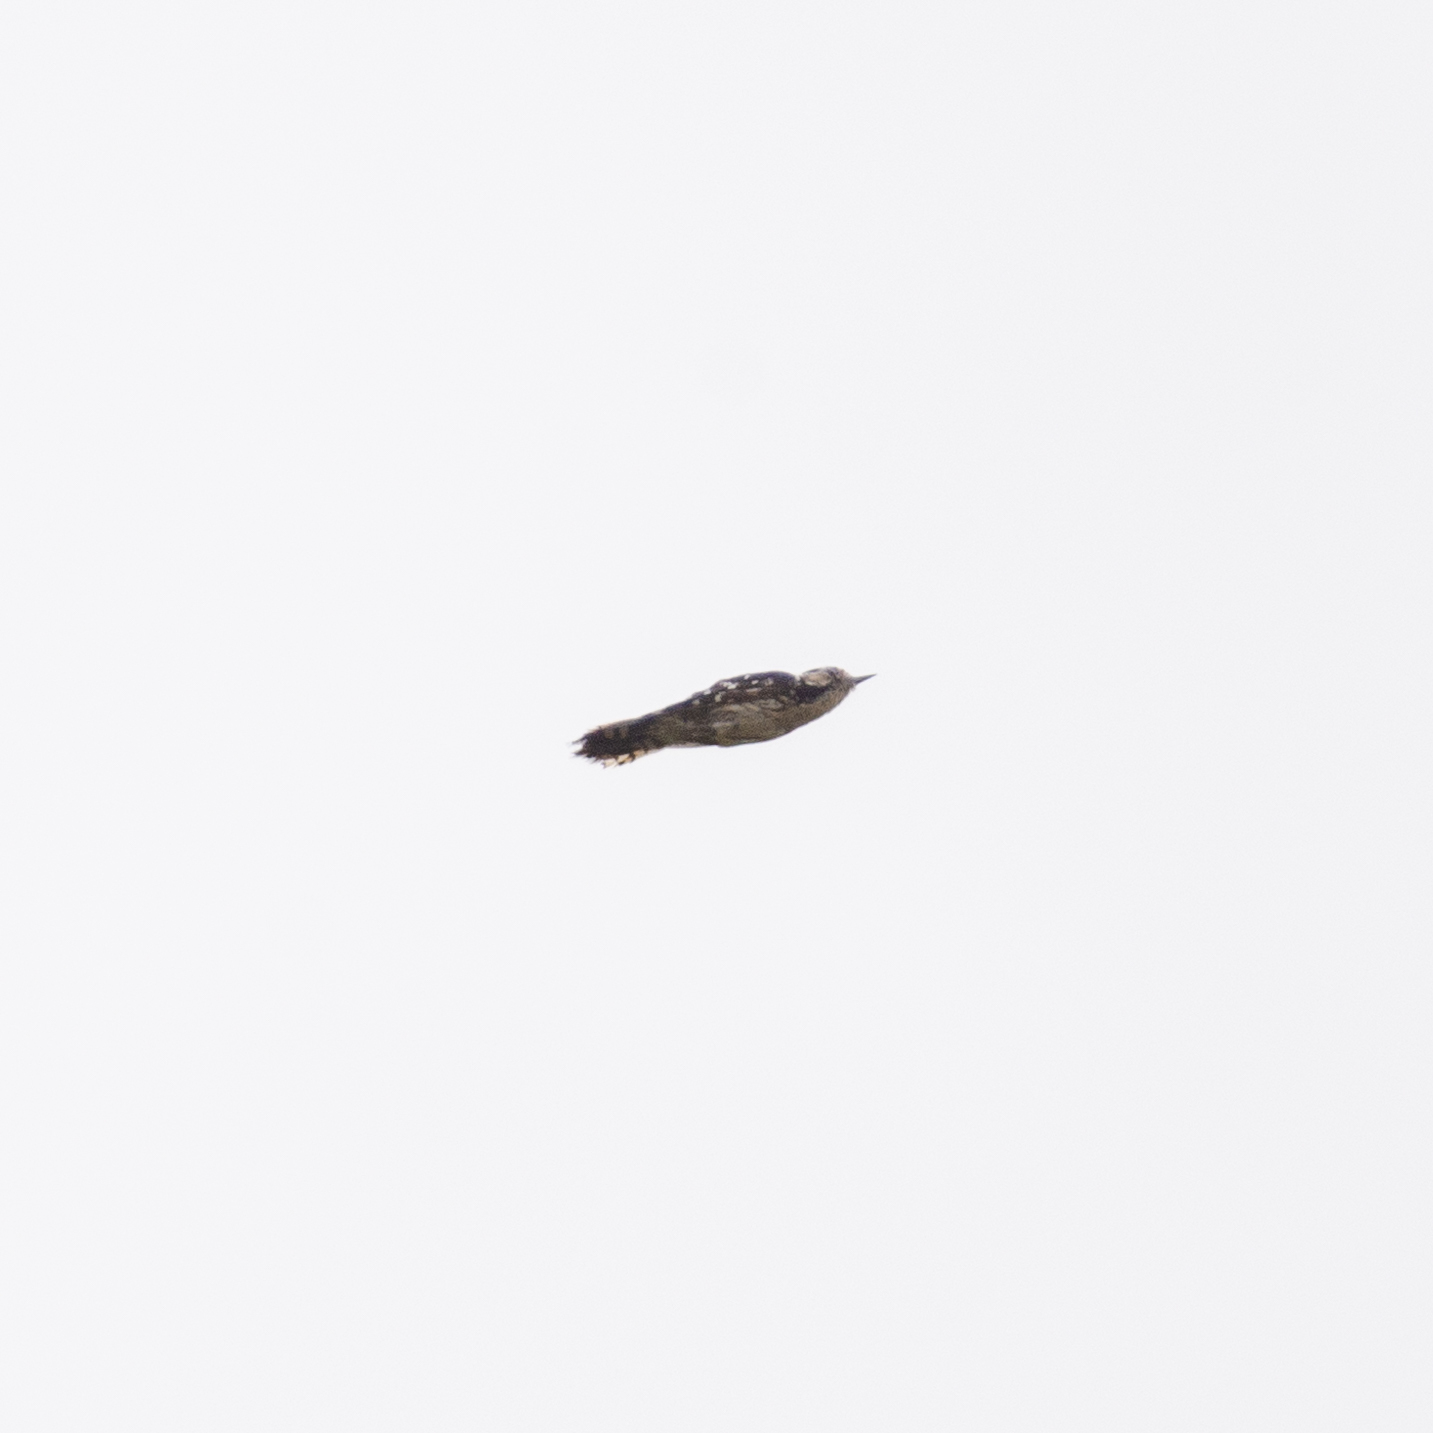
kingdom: Animalia
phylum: Chordata
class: Aves
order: Piciformes
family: Picidae
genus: Dryobates
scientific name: Dryobates minor
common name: Lesser spotted woodpecker
